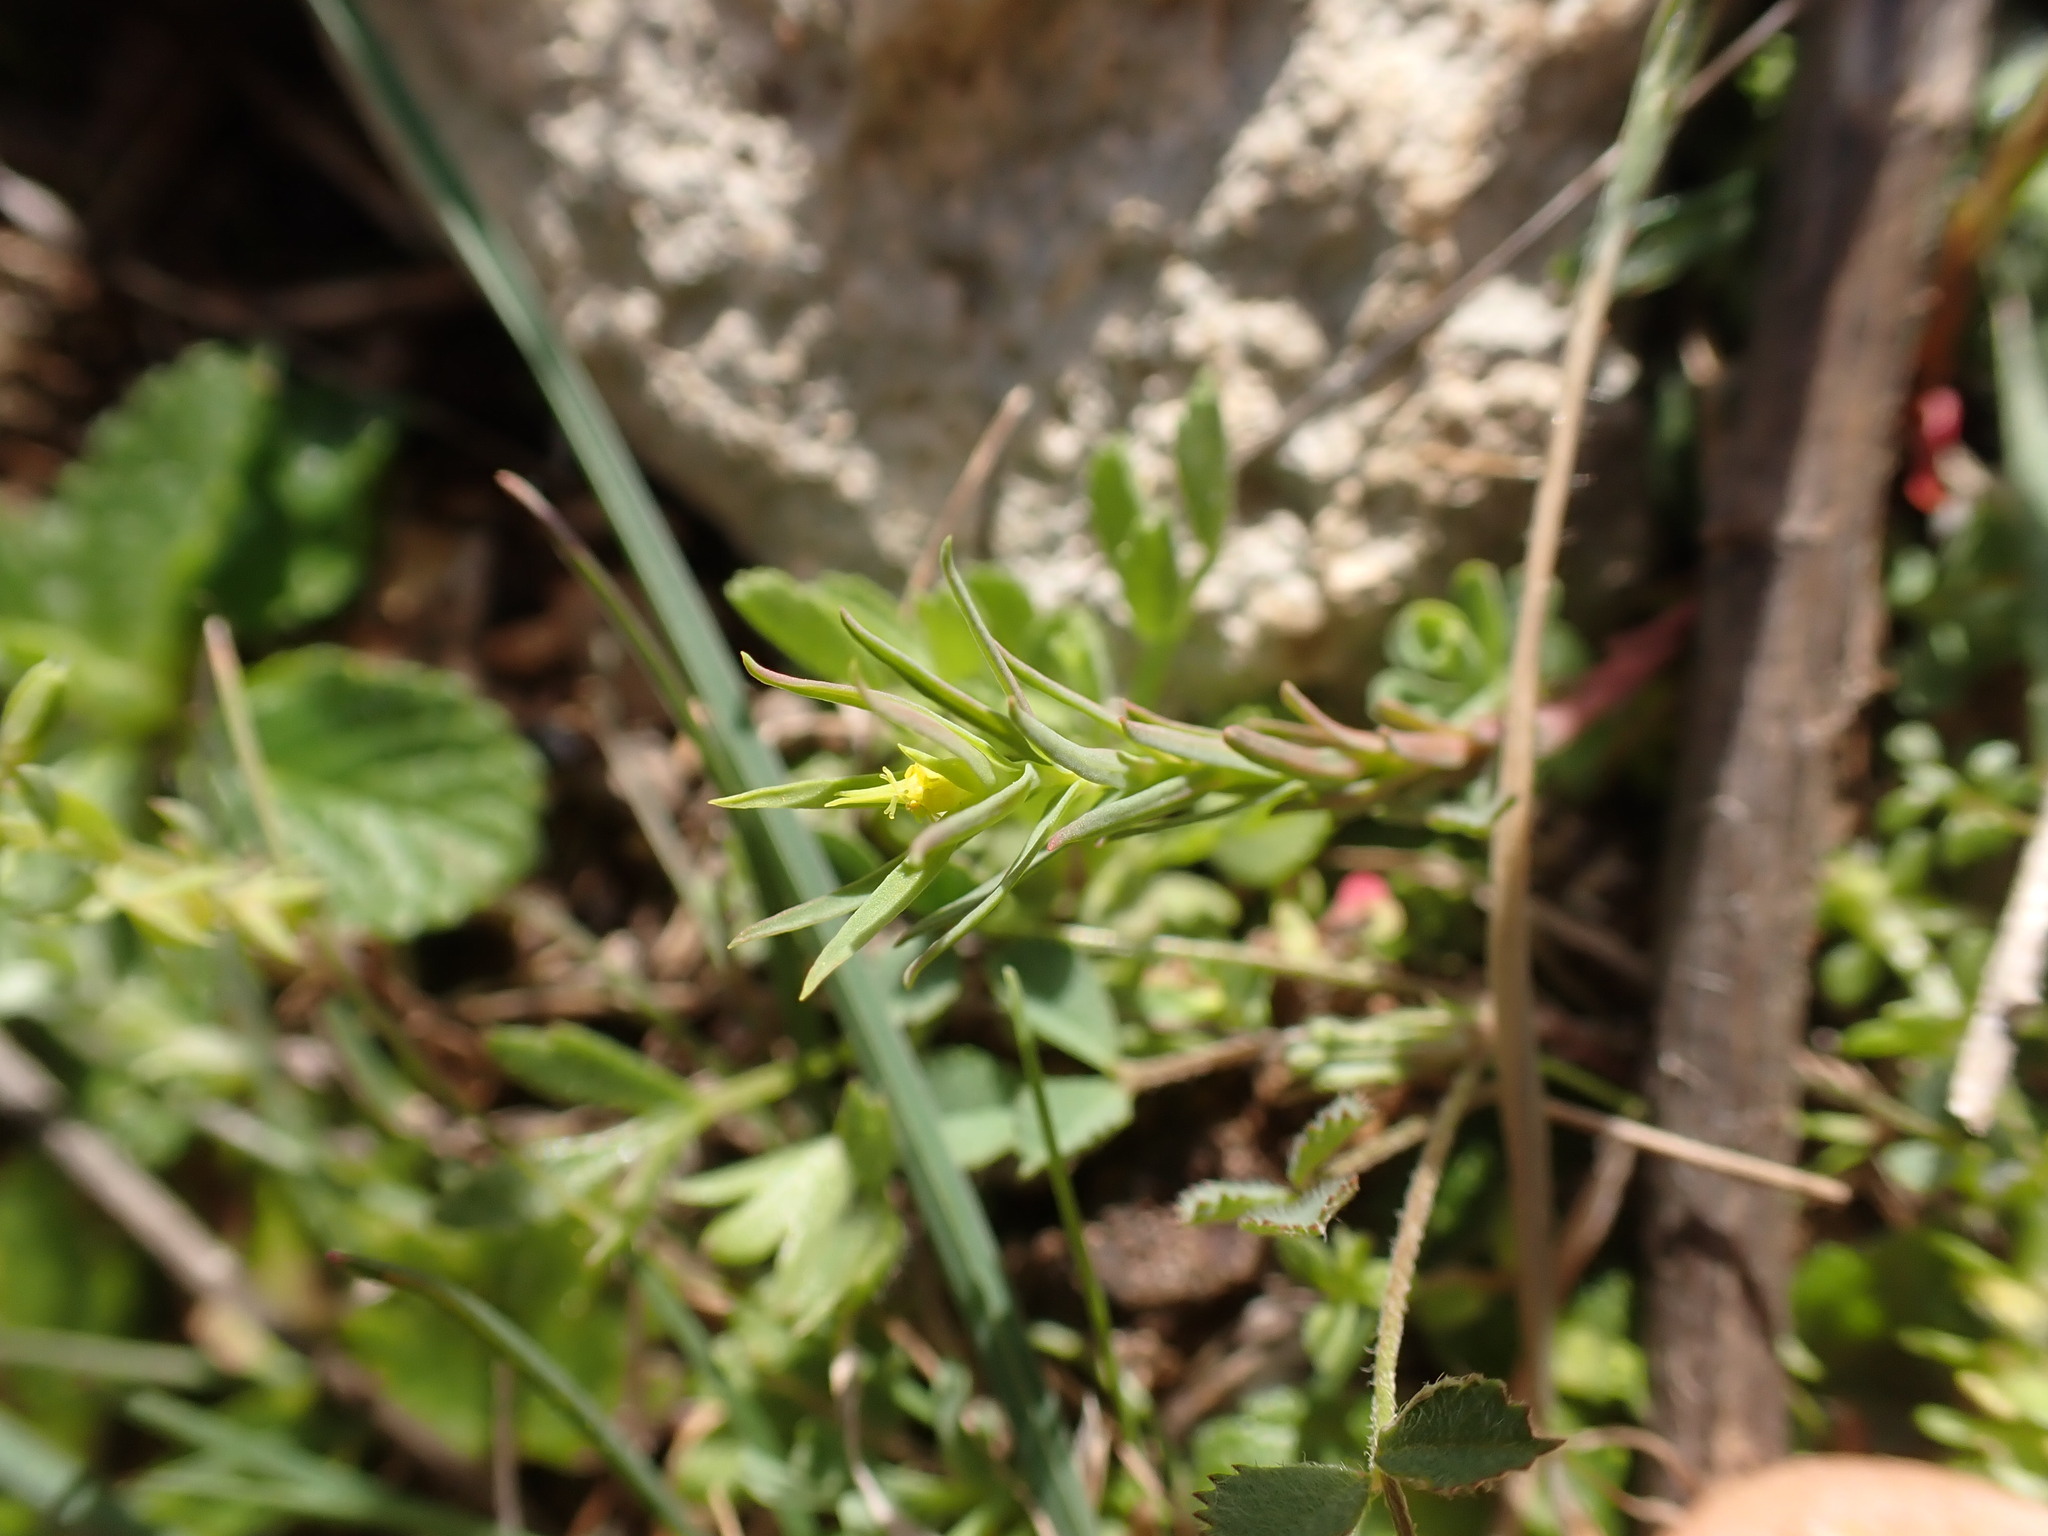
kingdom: Plantae
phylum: Tracheophyta
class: Magnoliopsida
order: Malpighiales
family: Euphorbiaceae
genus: Euphorbia
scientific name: Euphorbia exigua
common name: Dwarf spurge
